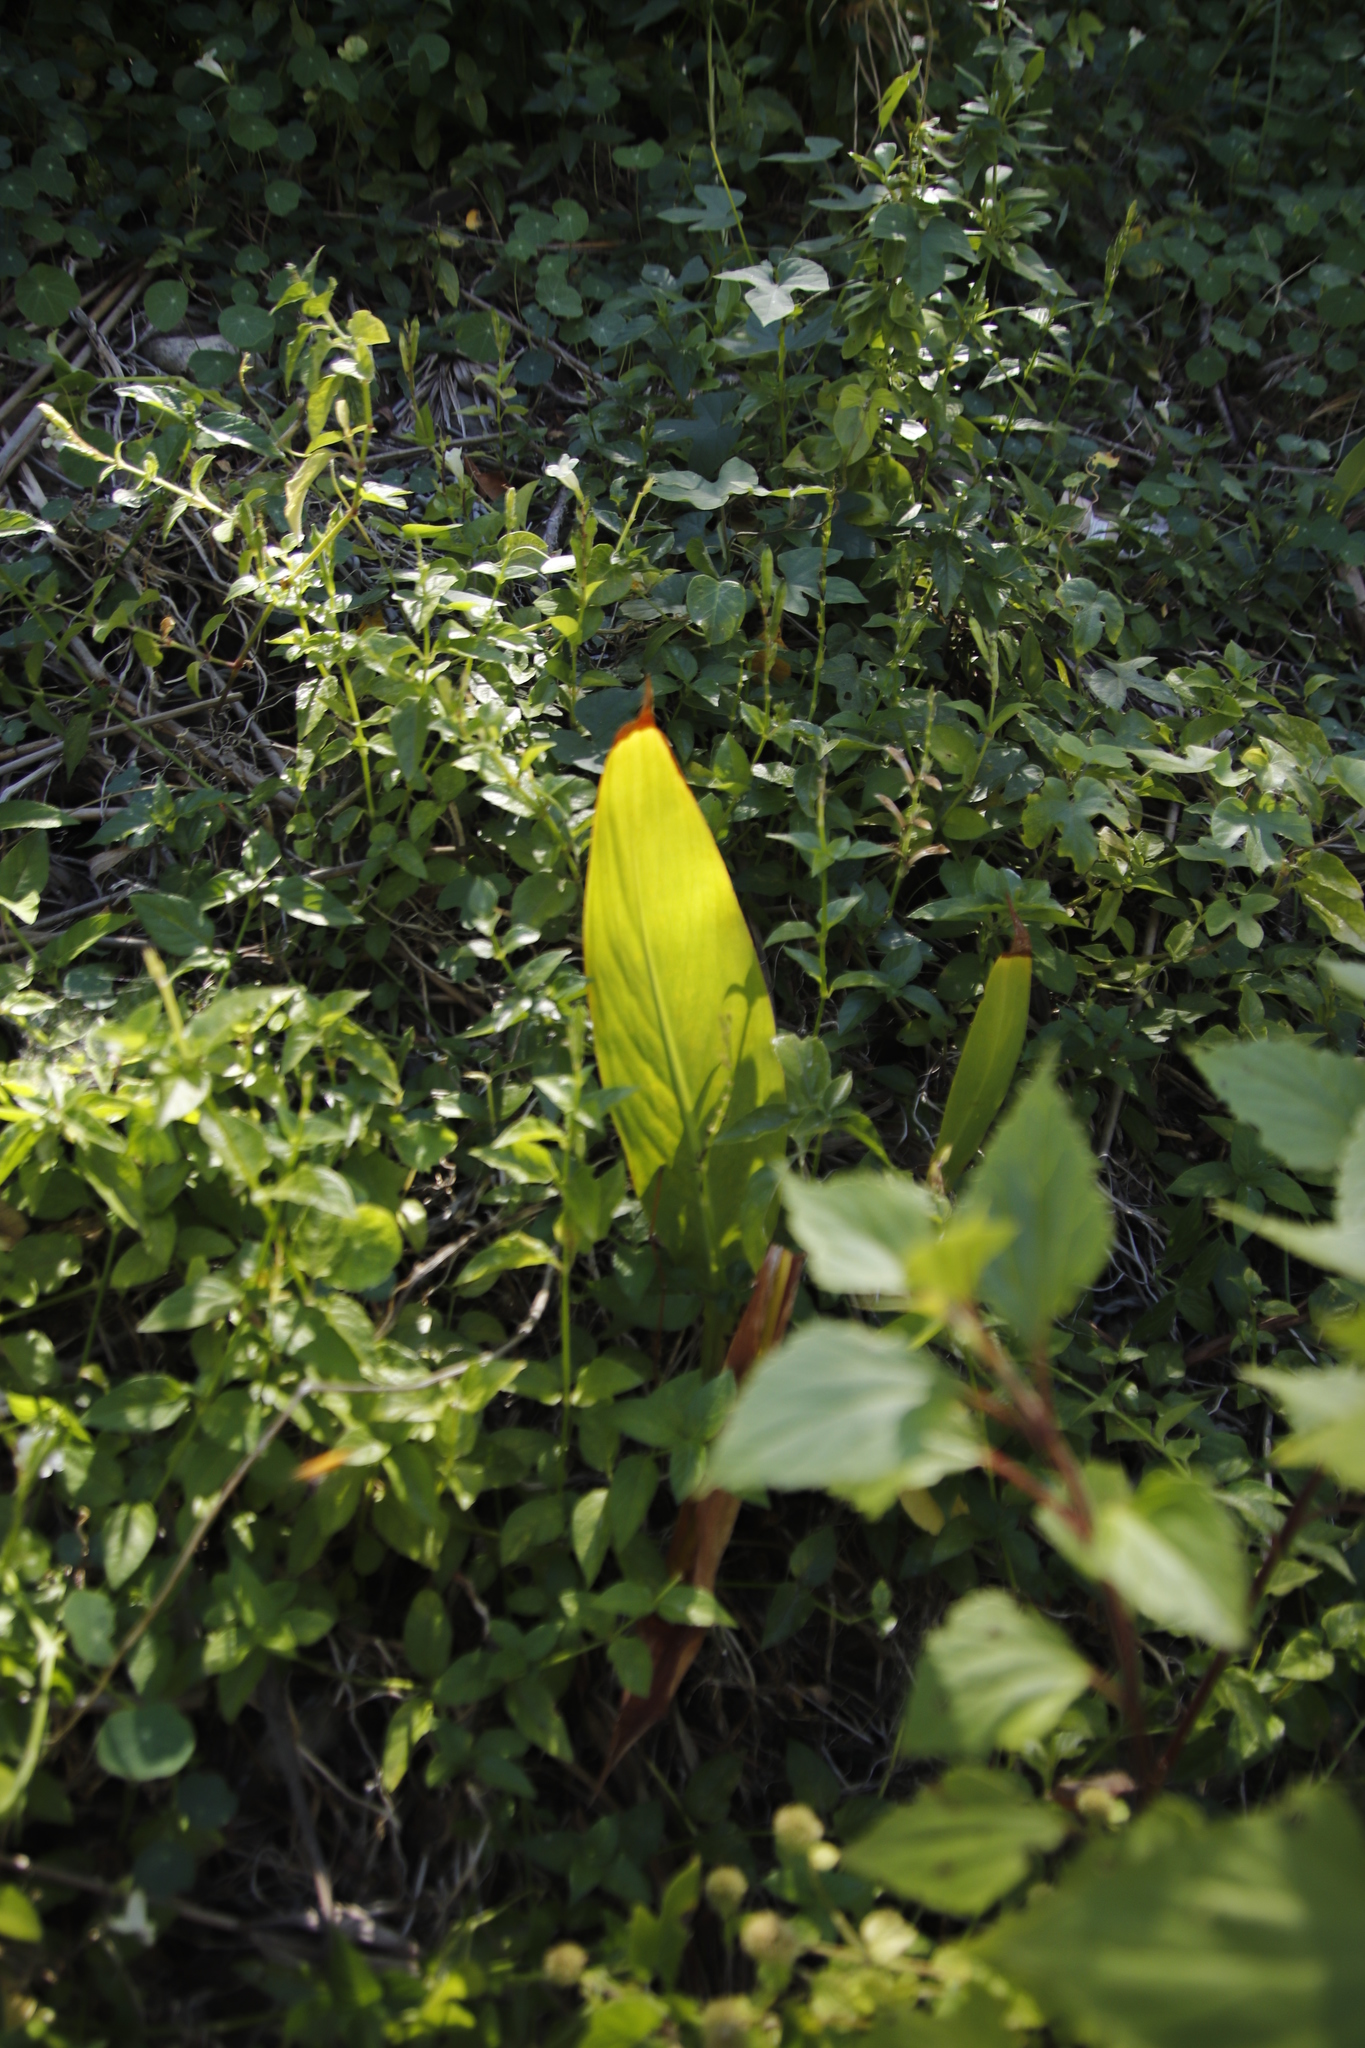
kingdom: Plantae
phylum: Tracheophyta
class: Liliopsida
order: Zingiberales
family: Cannaceae
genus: Canna
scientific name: Canna hybrida
